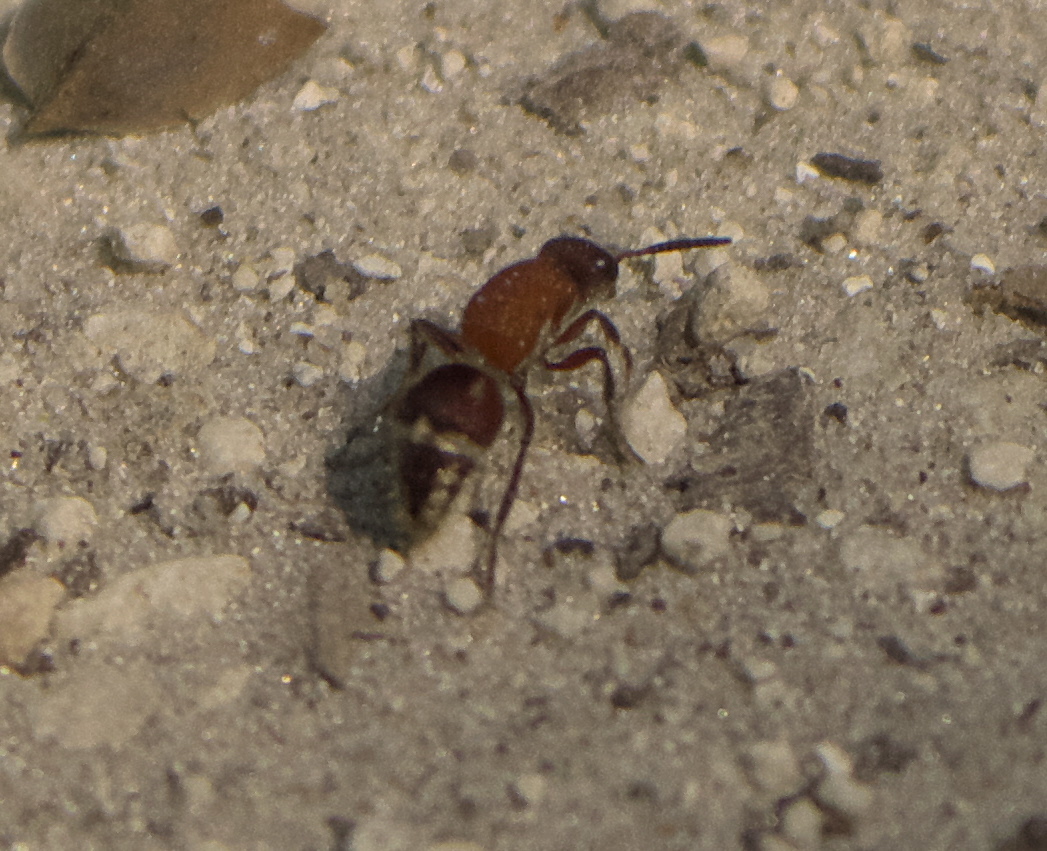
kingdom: Animalia
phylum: Arthropoda
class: Insecta
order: Hymenoptera
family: Mutillidae
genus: Timulla
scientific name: Timulla
